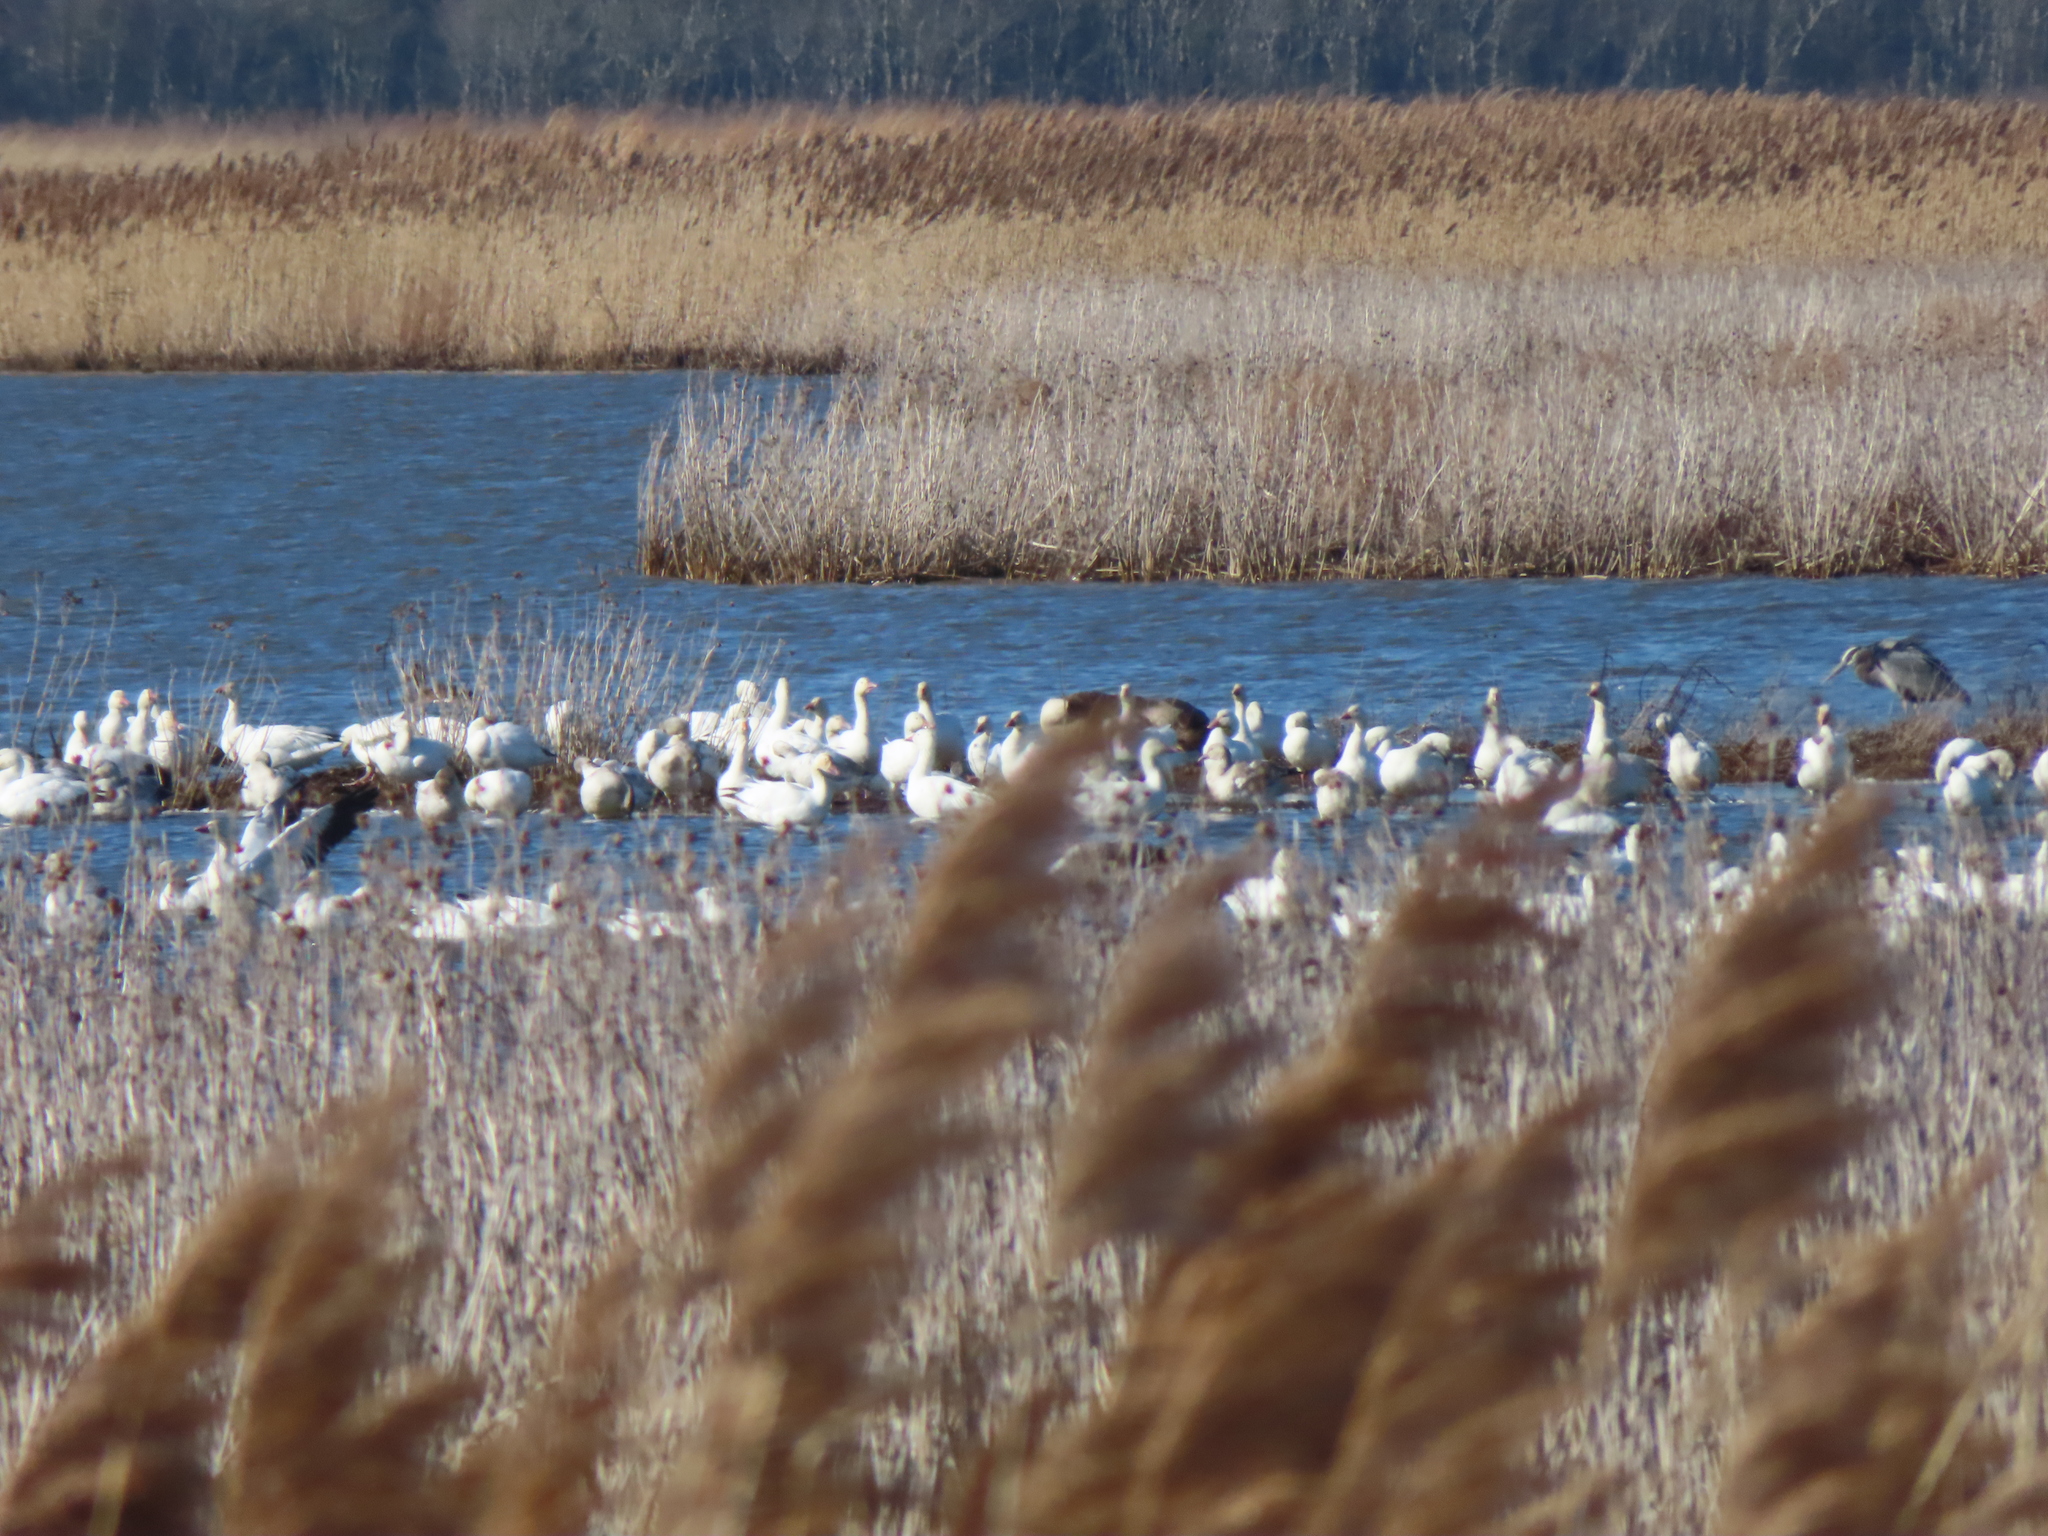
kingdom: Animalia
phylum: Chordata
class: Aves
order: Pelecaniformes
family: Ardeidae
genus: Ardea
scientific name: Ardea herodias
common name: Great blue heron
